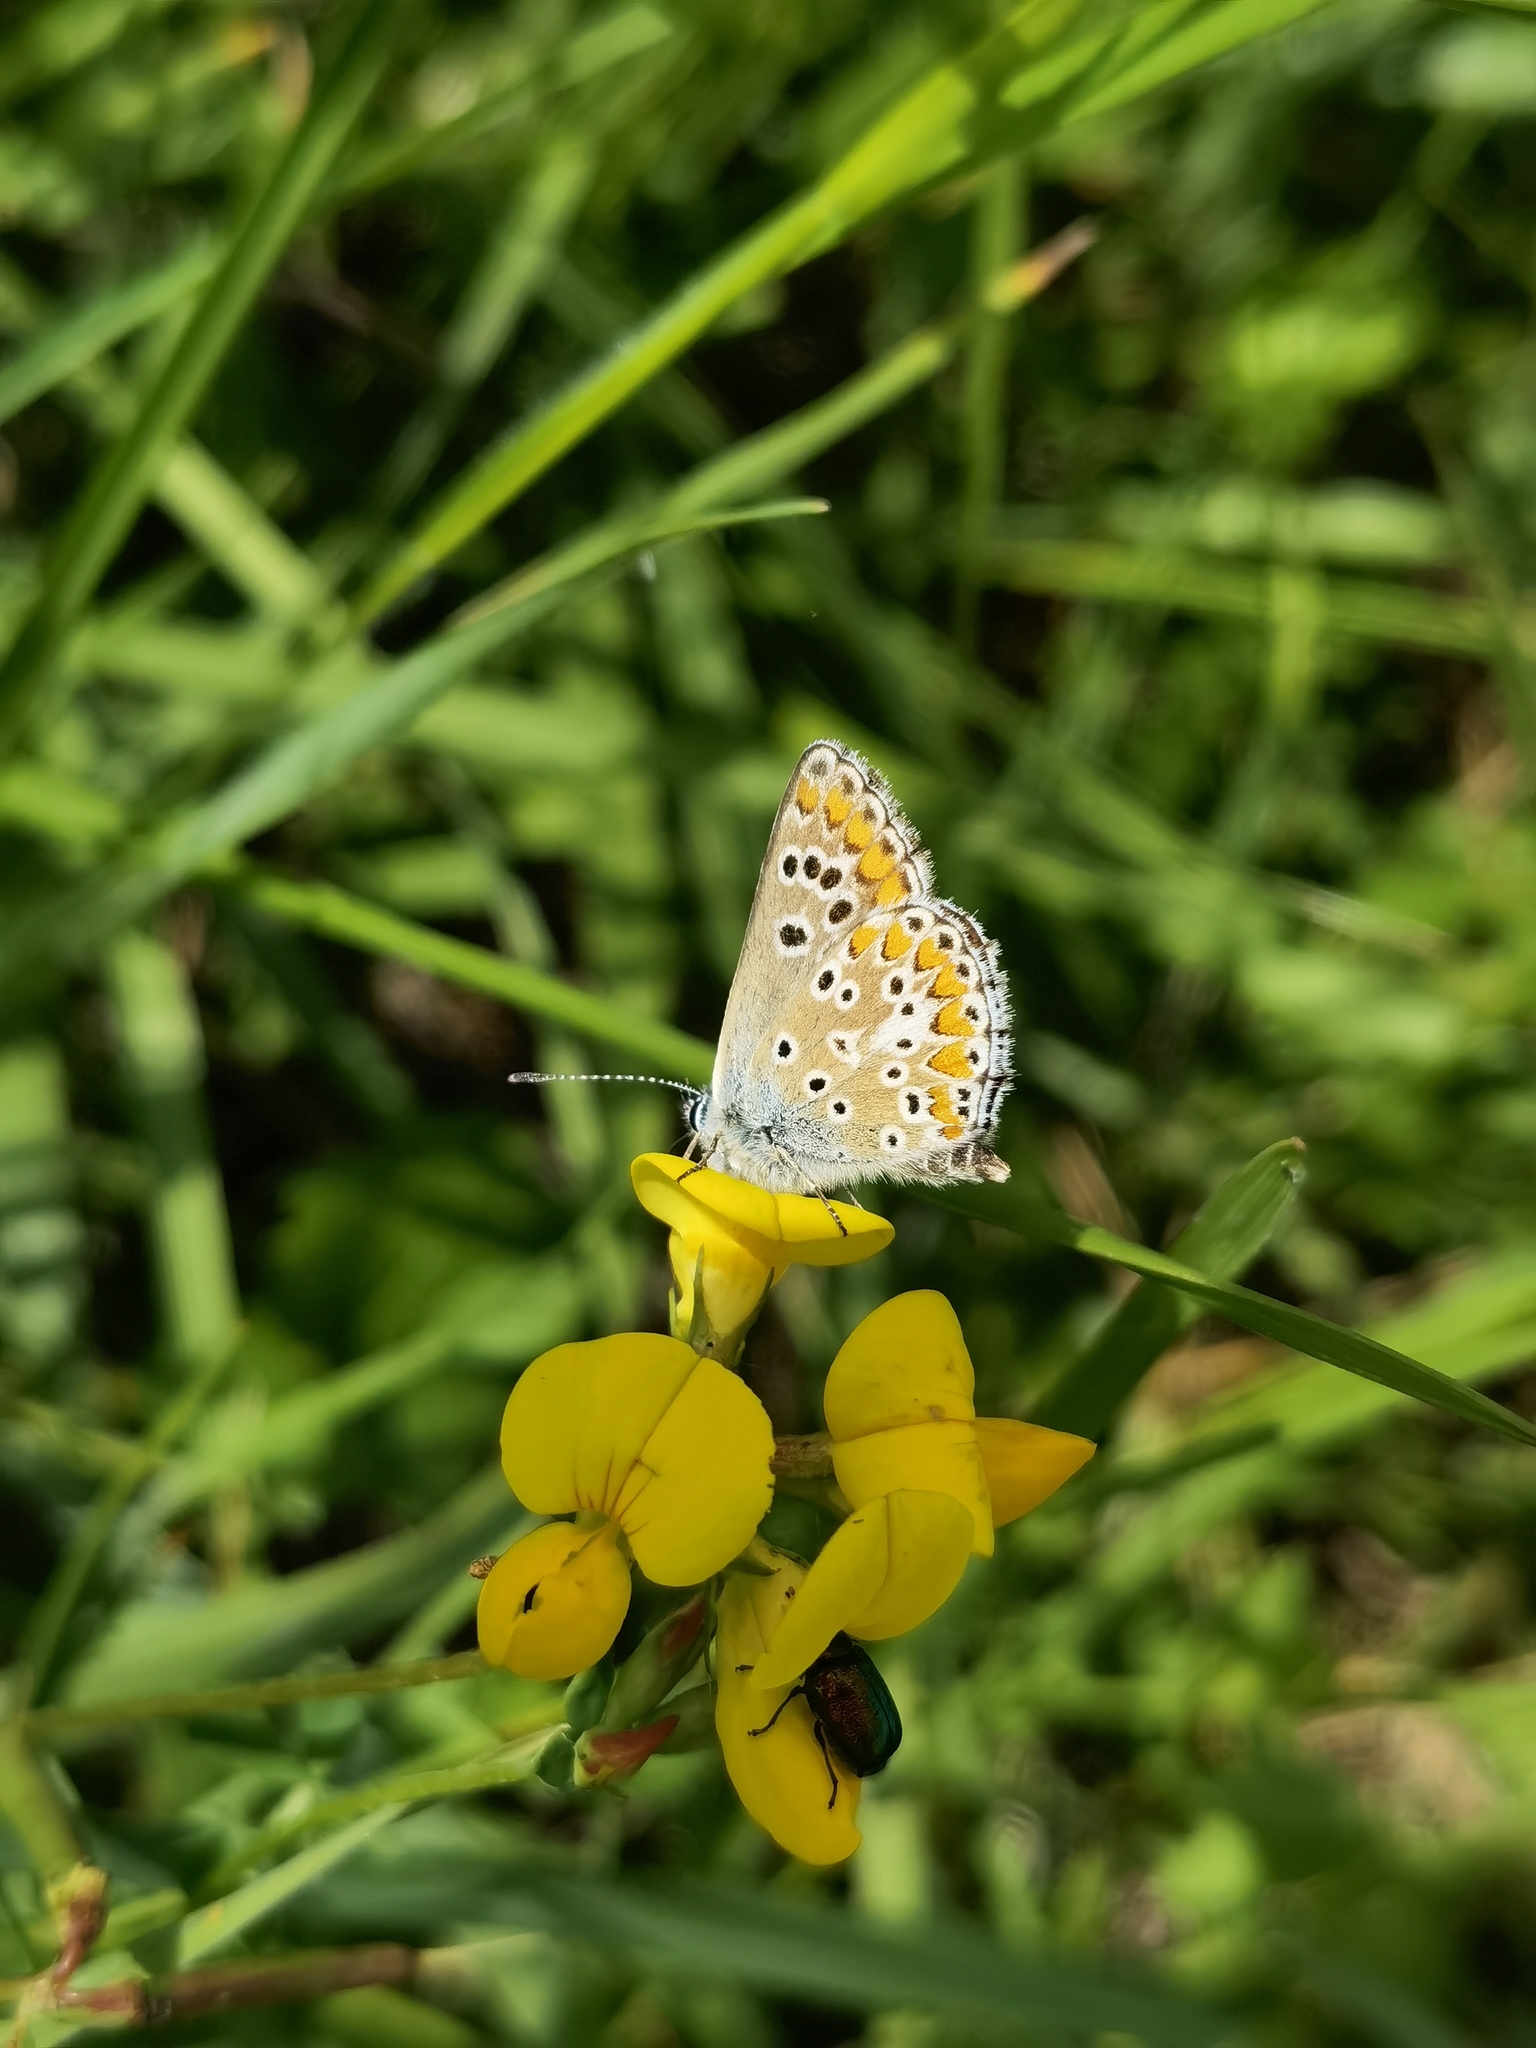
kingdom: Animalia
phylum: Arthropoda
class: Insecta
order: Lepidoptera
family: Lycaenidae
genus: Aricia
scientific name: Aricia agestis
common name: Brown argus
